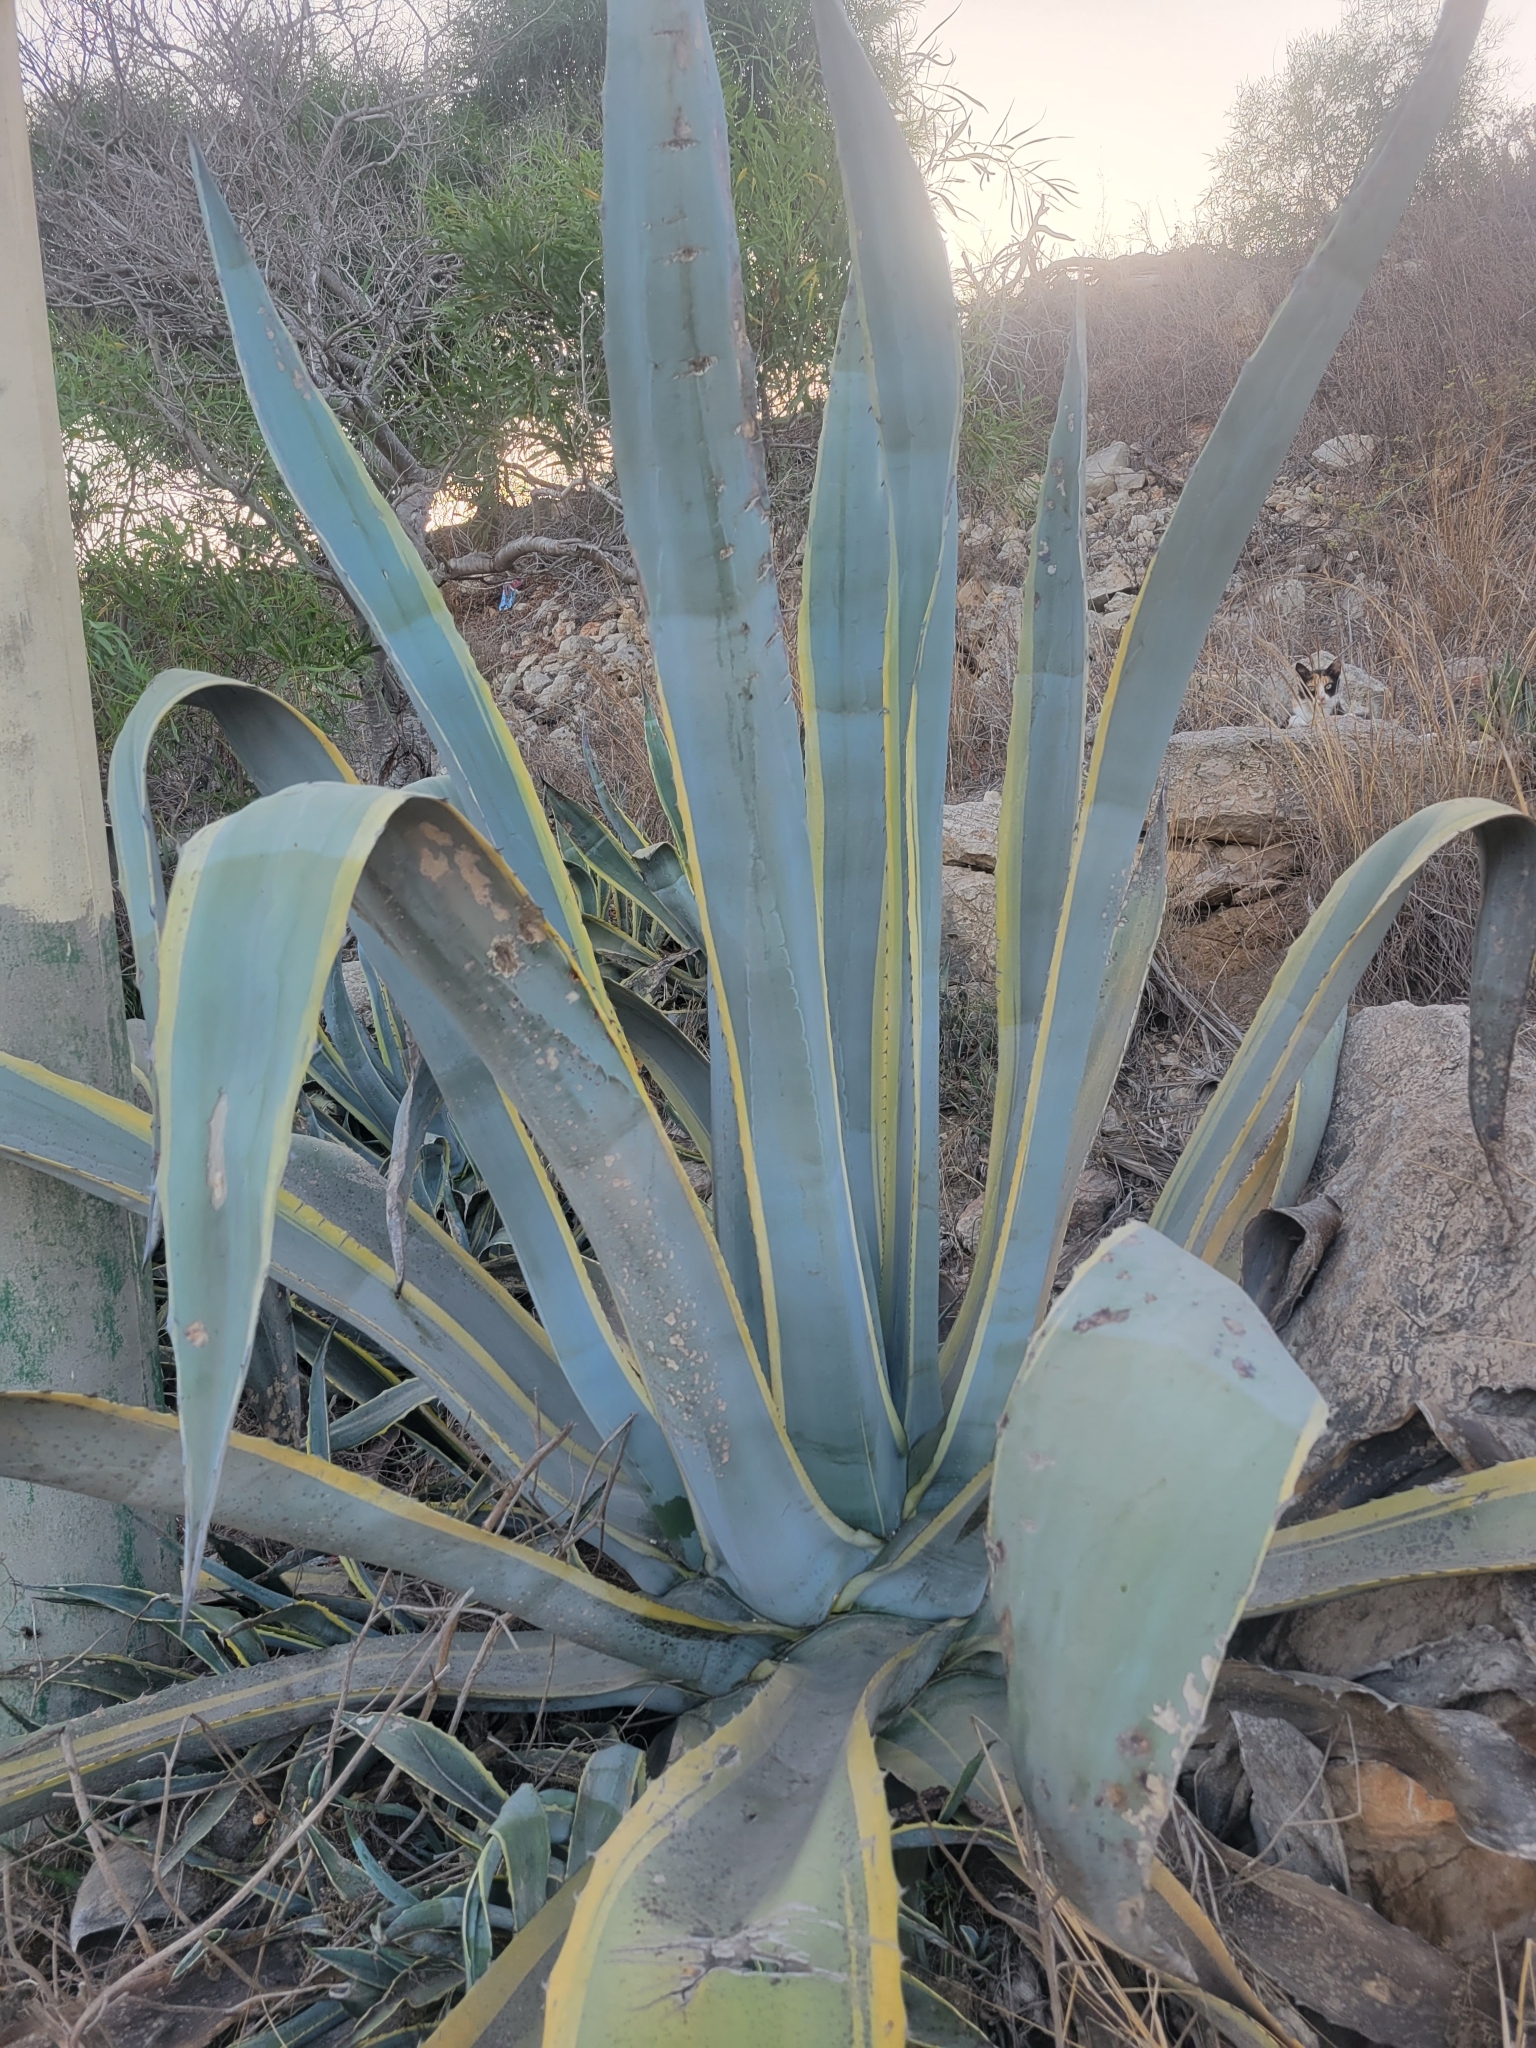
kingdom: Plantae
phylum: Tracheophyta
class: Liliopsida
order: Asparagales
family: Asparagaceae
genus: Agave
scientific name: Agave americana
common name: Centuryplant
